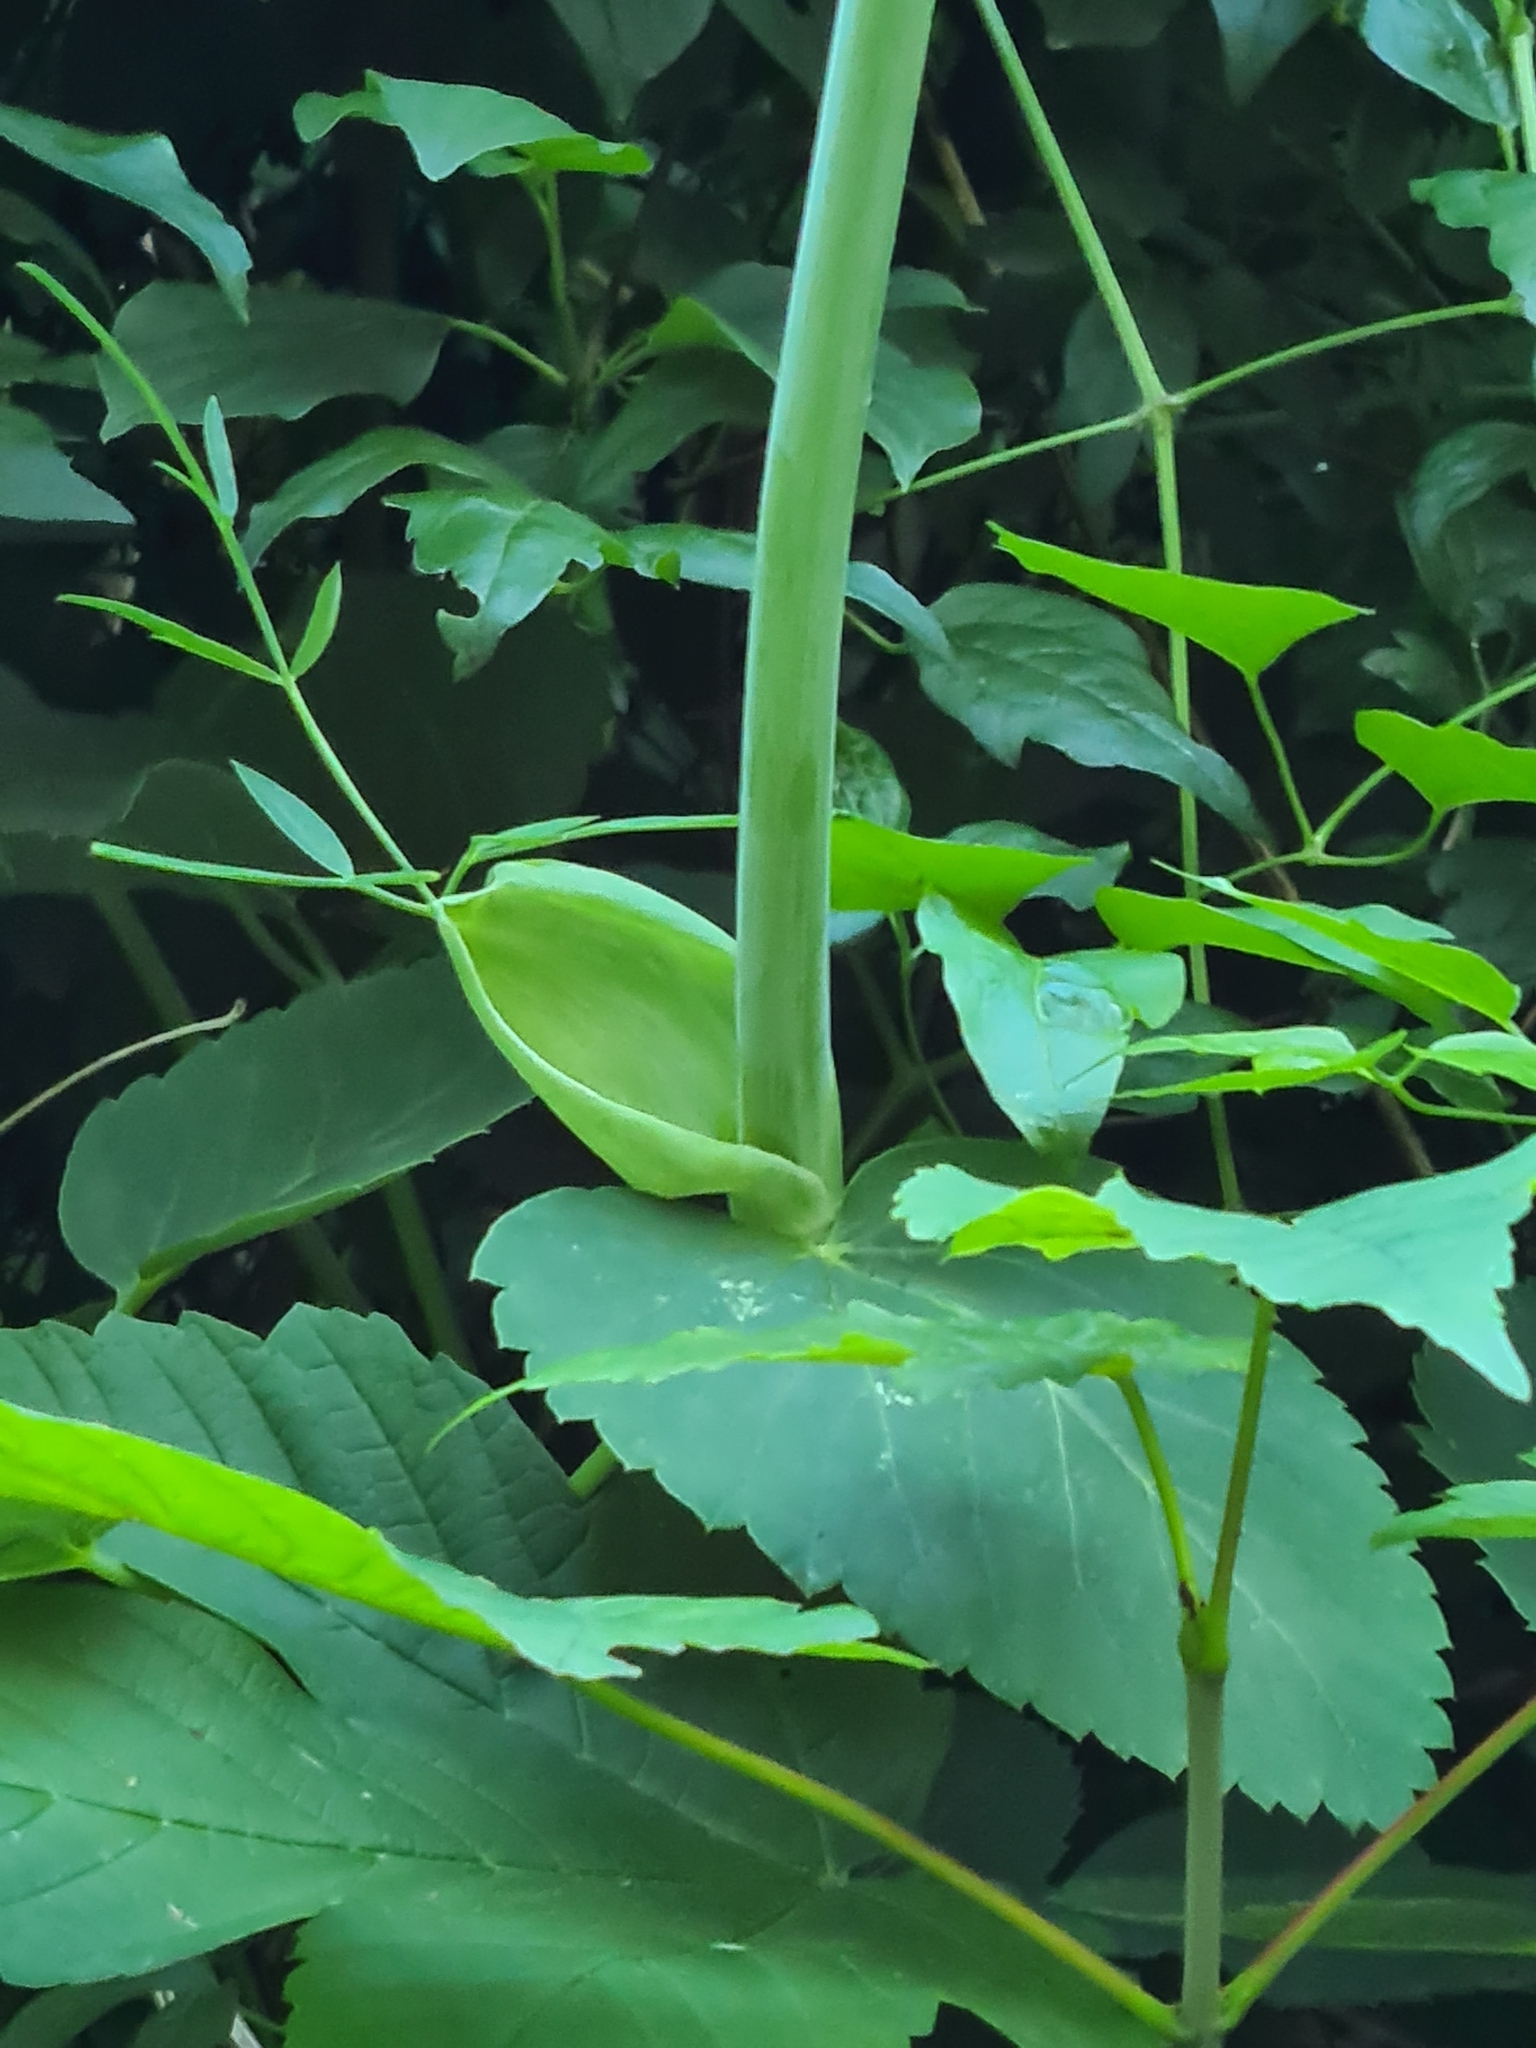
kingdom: Plantae
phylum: Tracheophyta
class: Magnoliopsida
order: Apiales
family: Apiaceae
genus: Laserpitium
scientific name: Laserpitium latifolium
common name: Broadleaf sermountain
